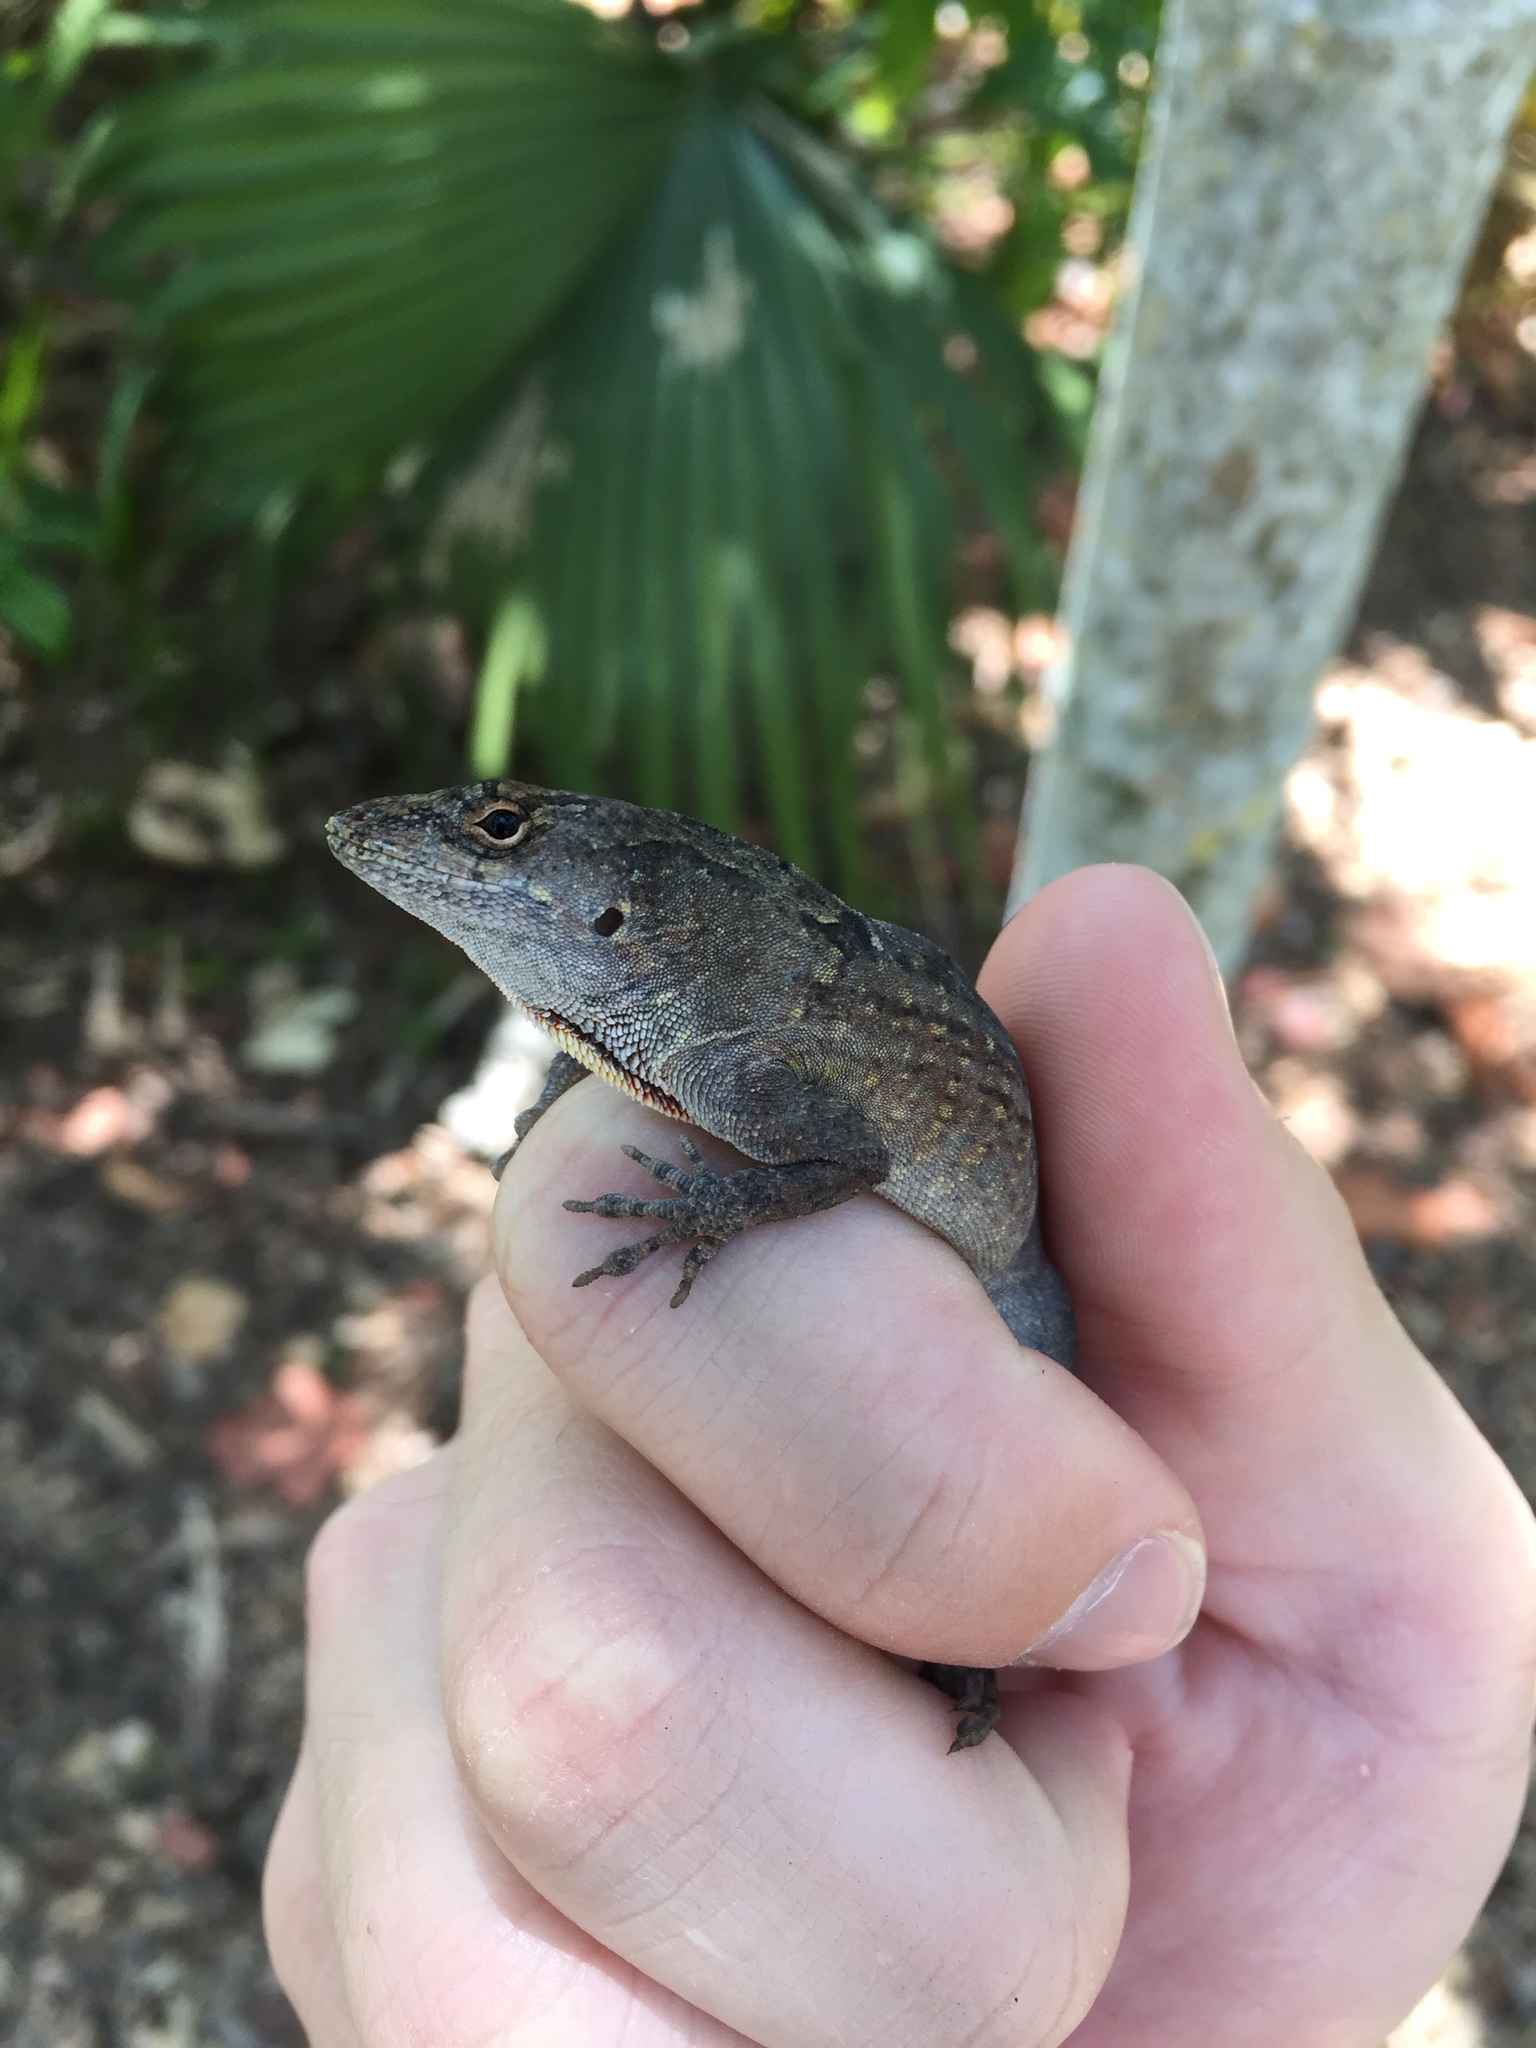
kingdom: Animalia
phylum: Chordata
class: Squamata
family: Dactyloidae
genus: Anolis
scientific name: Anolis sagrei
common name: Brown anole
